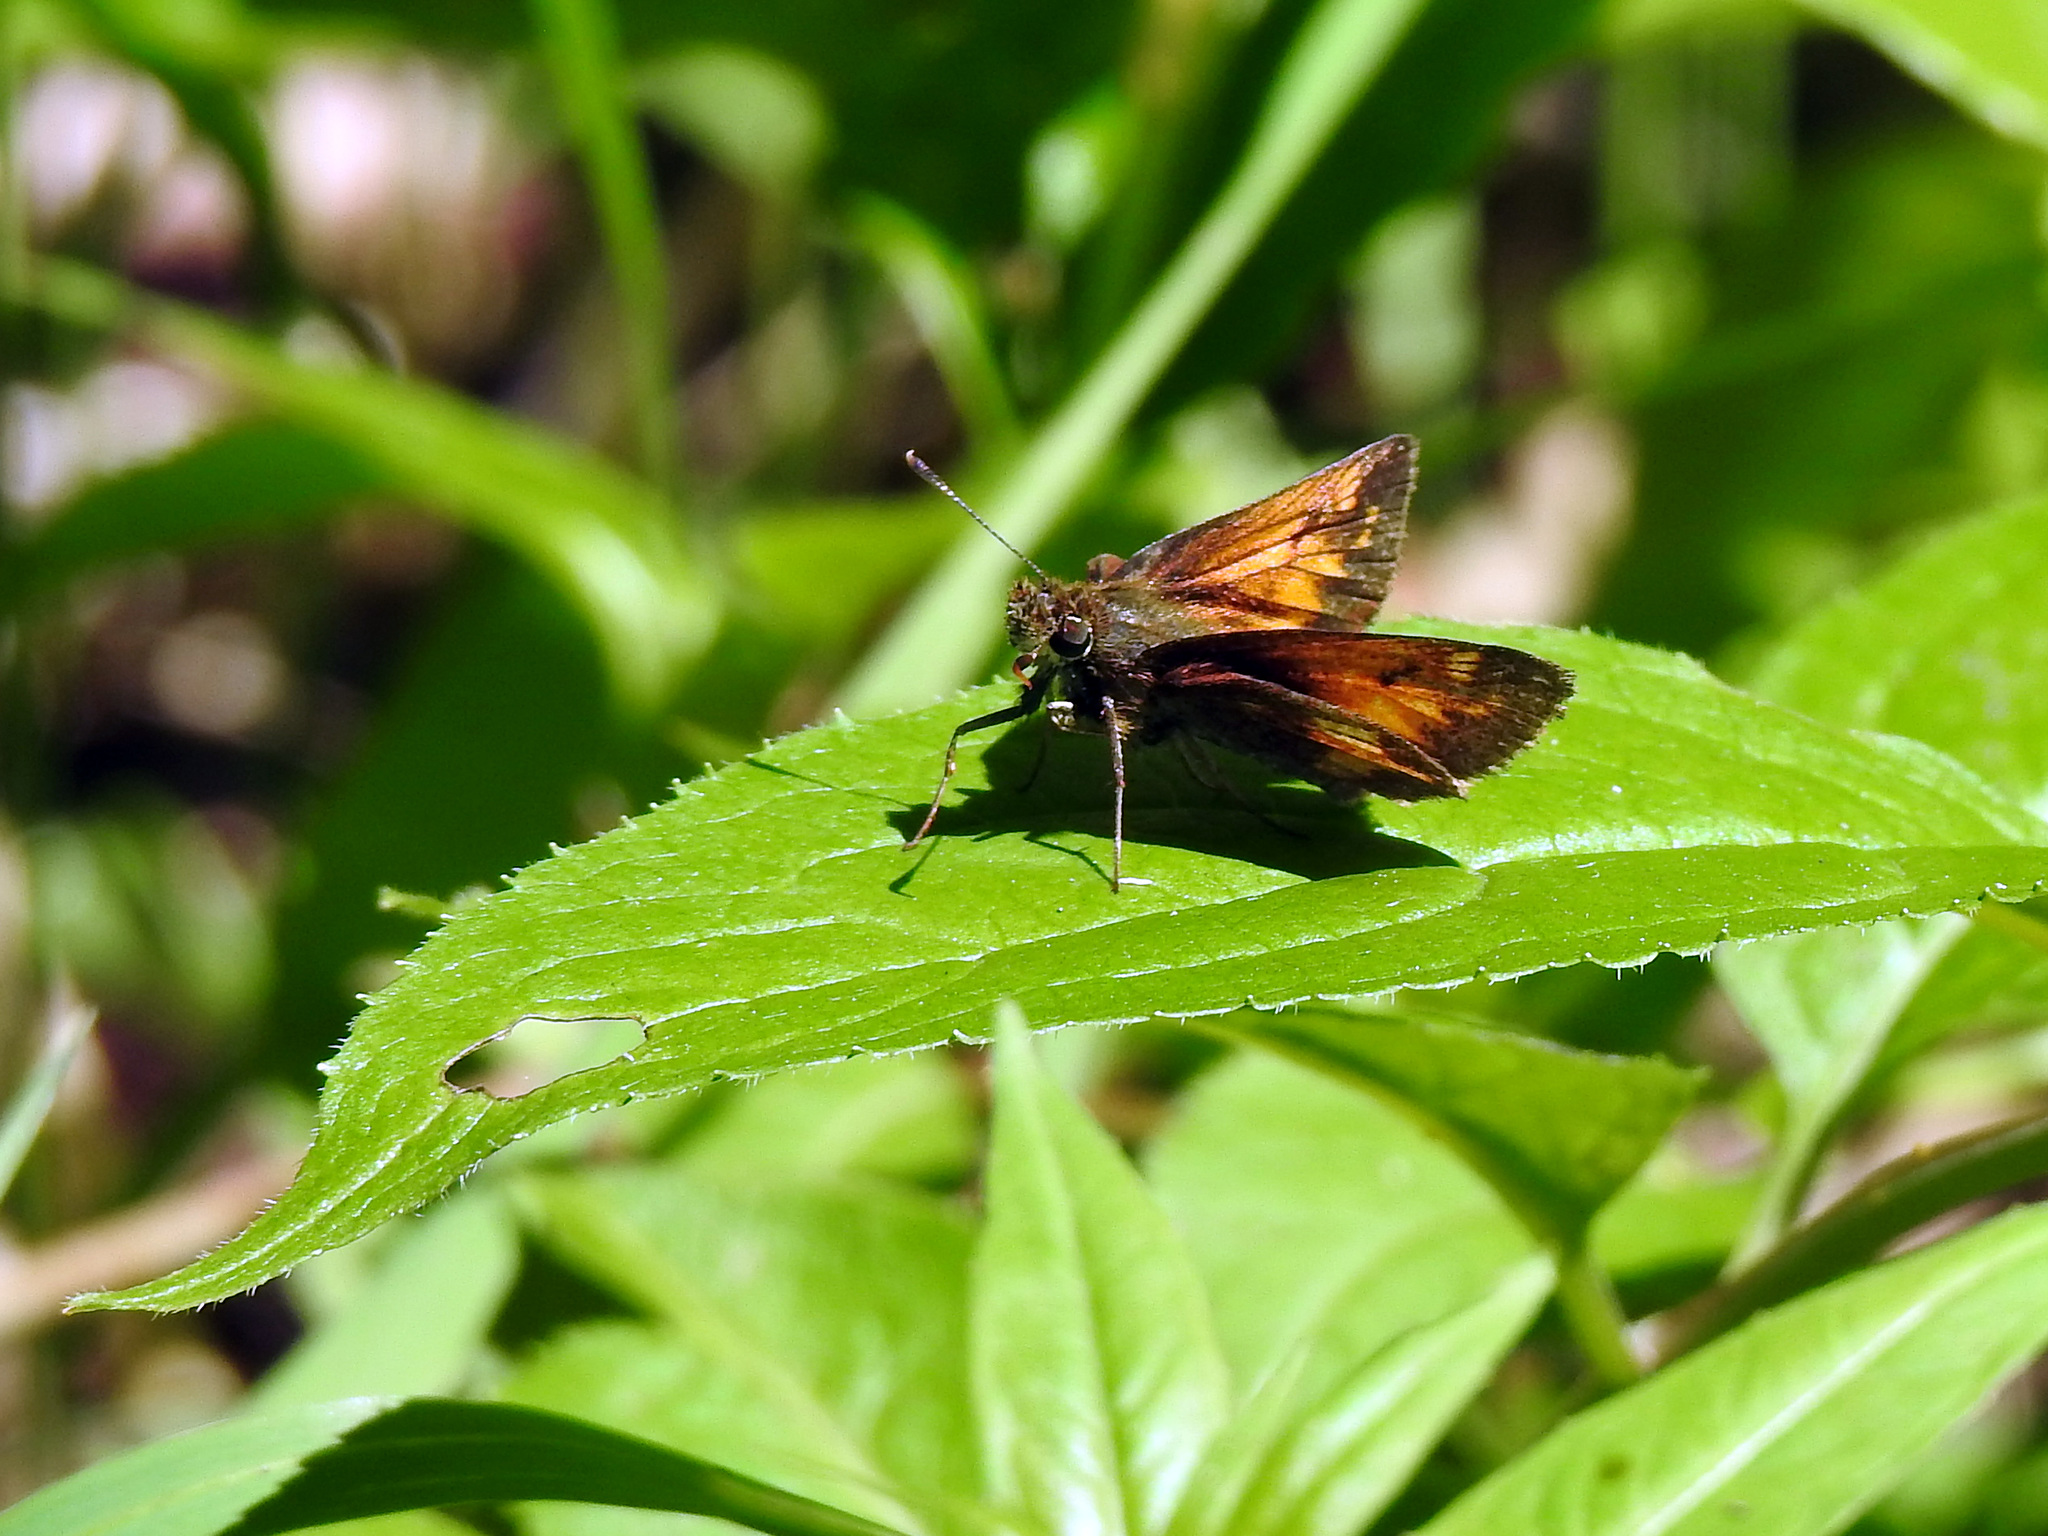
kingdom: Animalia
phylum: Arthropoda
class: Insecta
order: Lepidoptera
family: Hesperiidae
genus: Lon
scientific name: Lon hobomok
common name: Hobomok skipper
